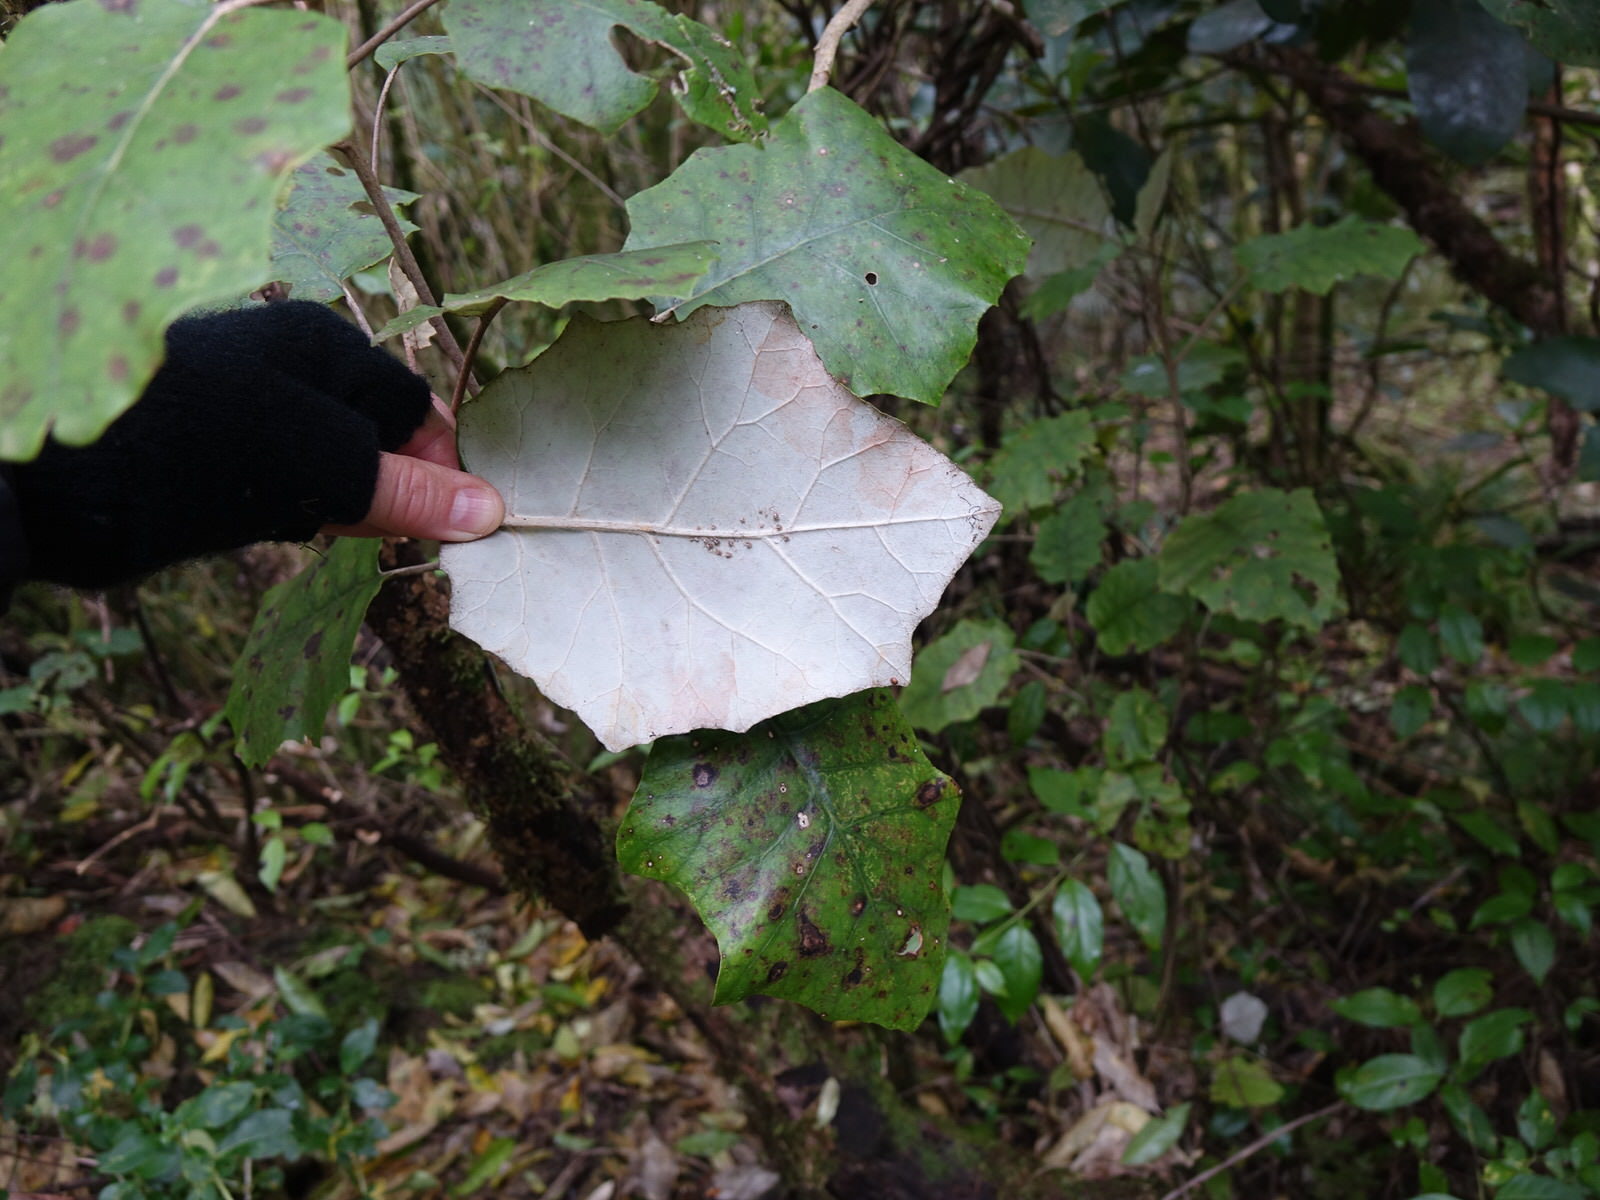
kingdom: Plantae
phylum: Tracheophyta
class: Magnoliopsida
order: Asterales
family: Asteraceae
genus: Brachyglottis
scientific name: Brachyglottis repanda
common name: Hedge ragwort
